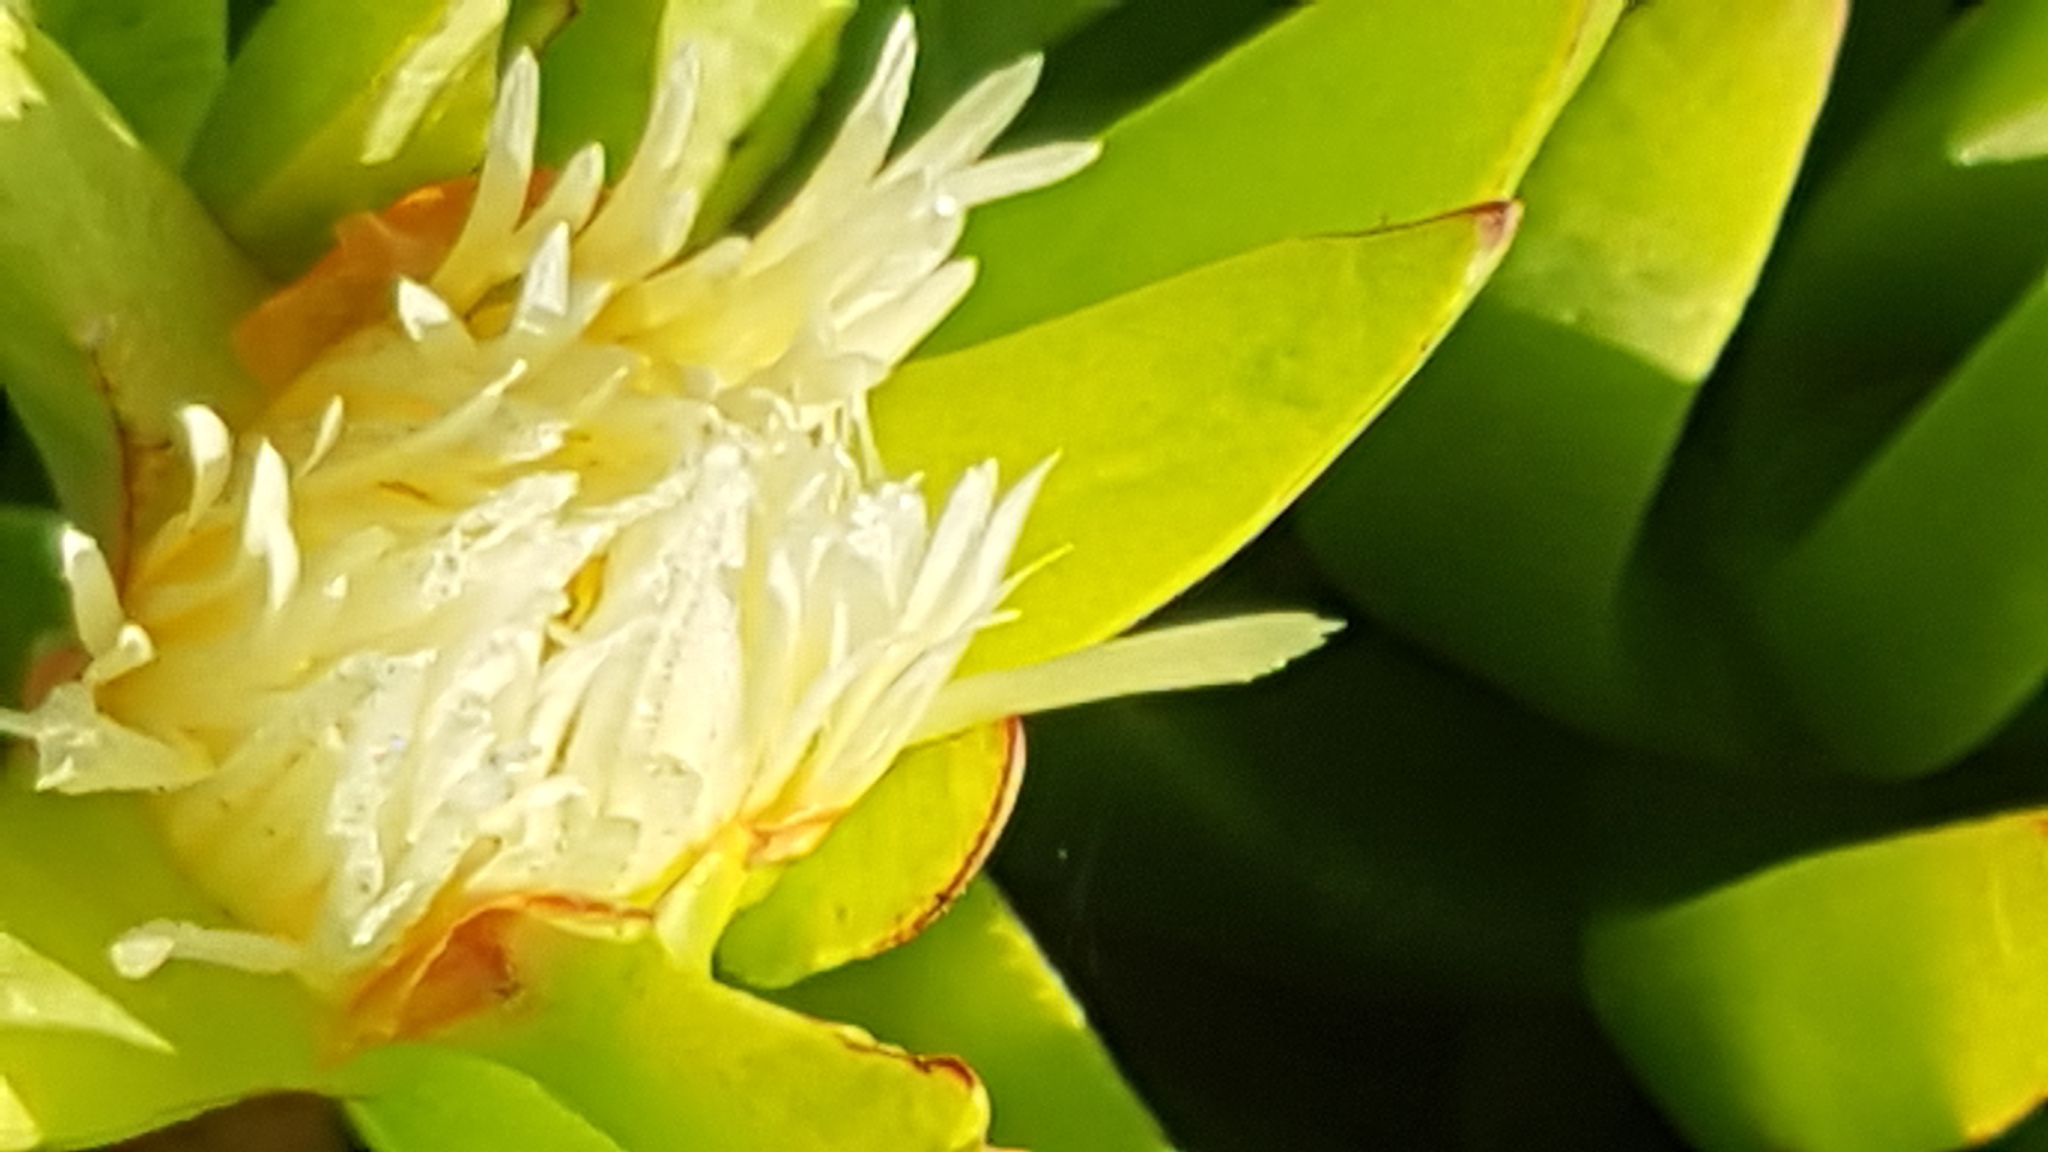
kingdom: Plantae
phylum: Tracheophyta
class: Magnoliopsida
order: Caryophyllales
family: Aizoaceae
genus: Carpobrotus
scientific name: Carpobrotus edulis
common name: Hottentot-fig
